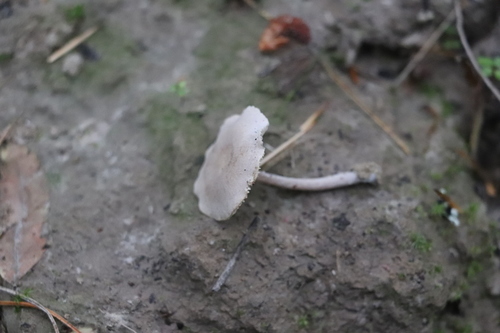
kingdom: Fungi
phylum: Basidiomycota
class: Agaricomycetes
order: Agaricales
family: Callistosporiaceae
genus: Pseudolaccaria
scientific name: Pseudolaccaria pachyphylla
